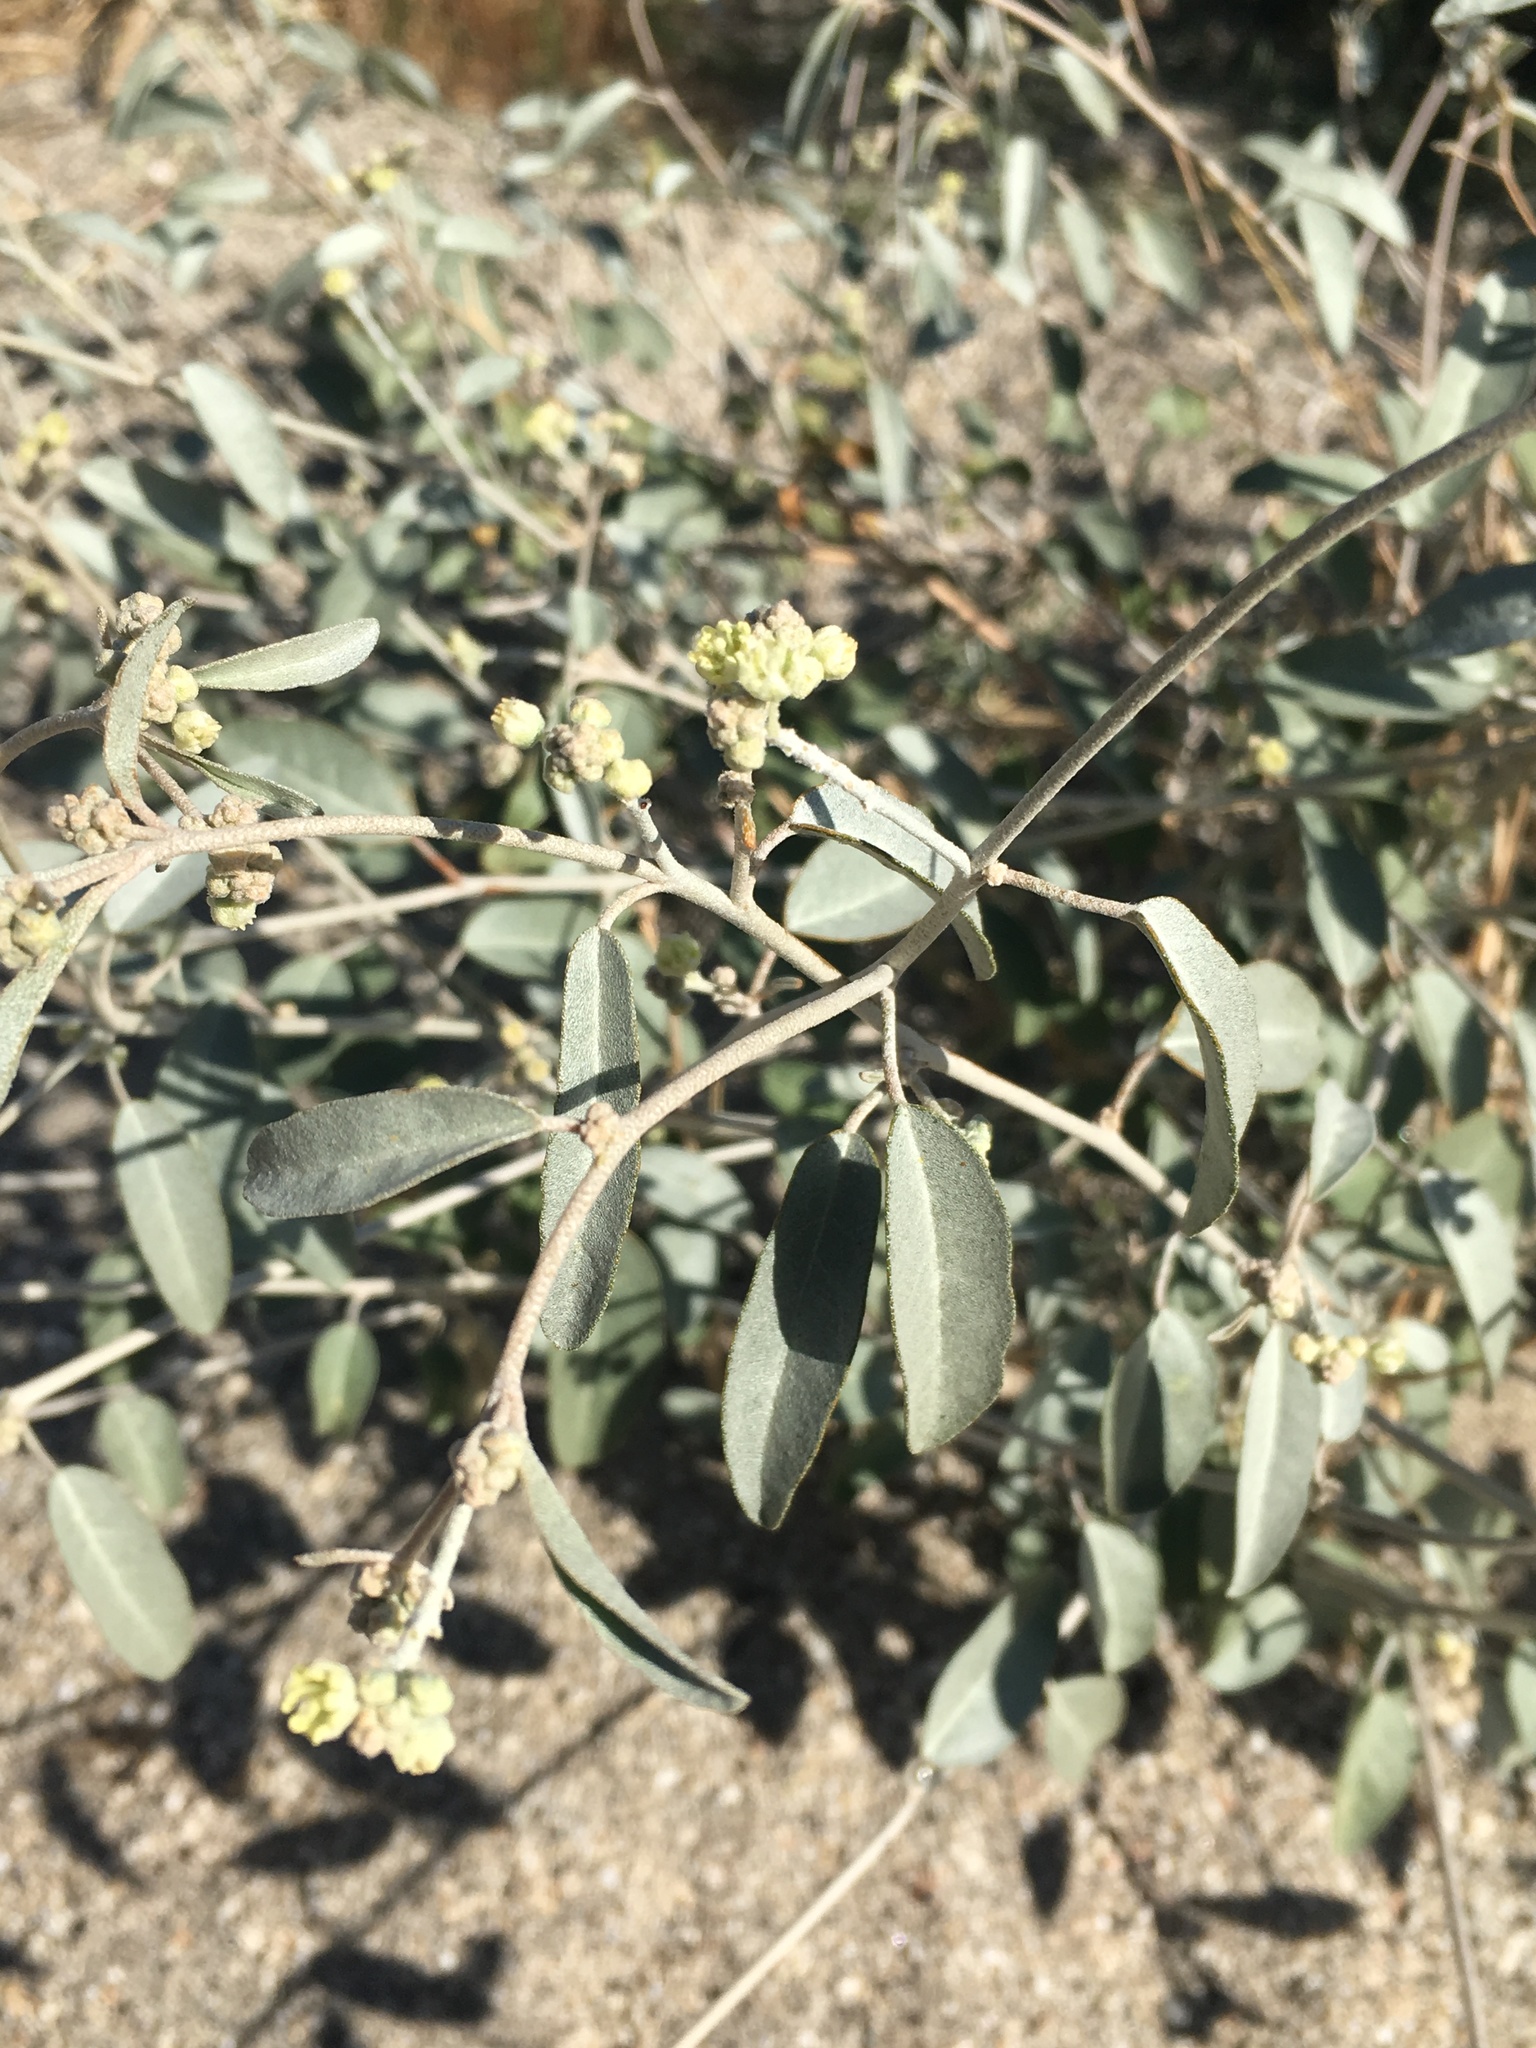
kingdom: Plantae
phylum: Tracheophyta
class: Magnoliopsida
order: Malpighiales
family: Euphorbiaceae
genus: Croton
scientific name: Croton californicus
